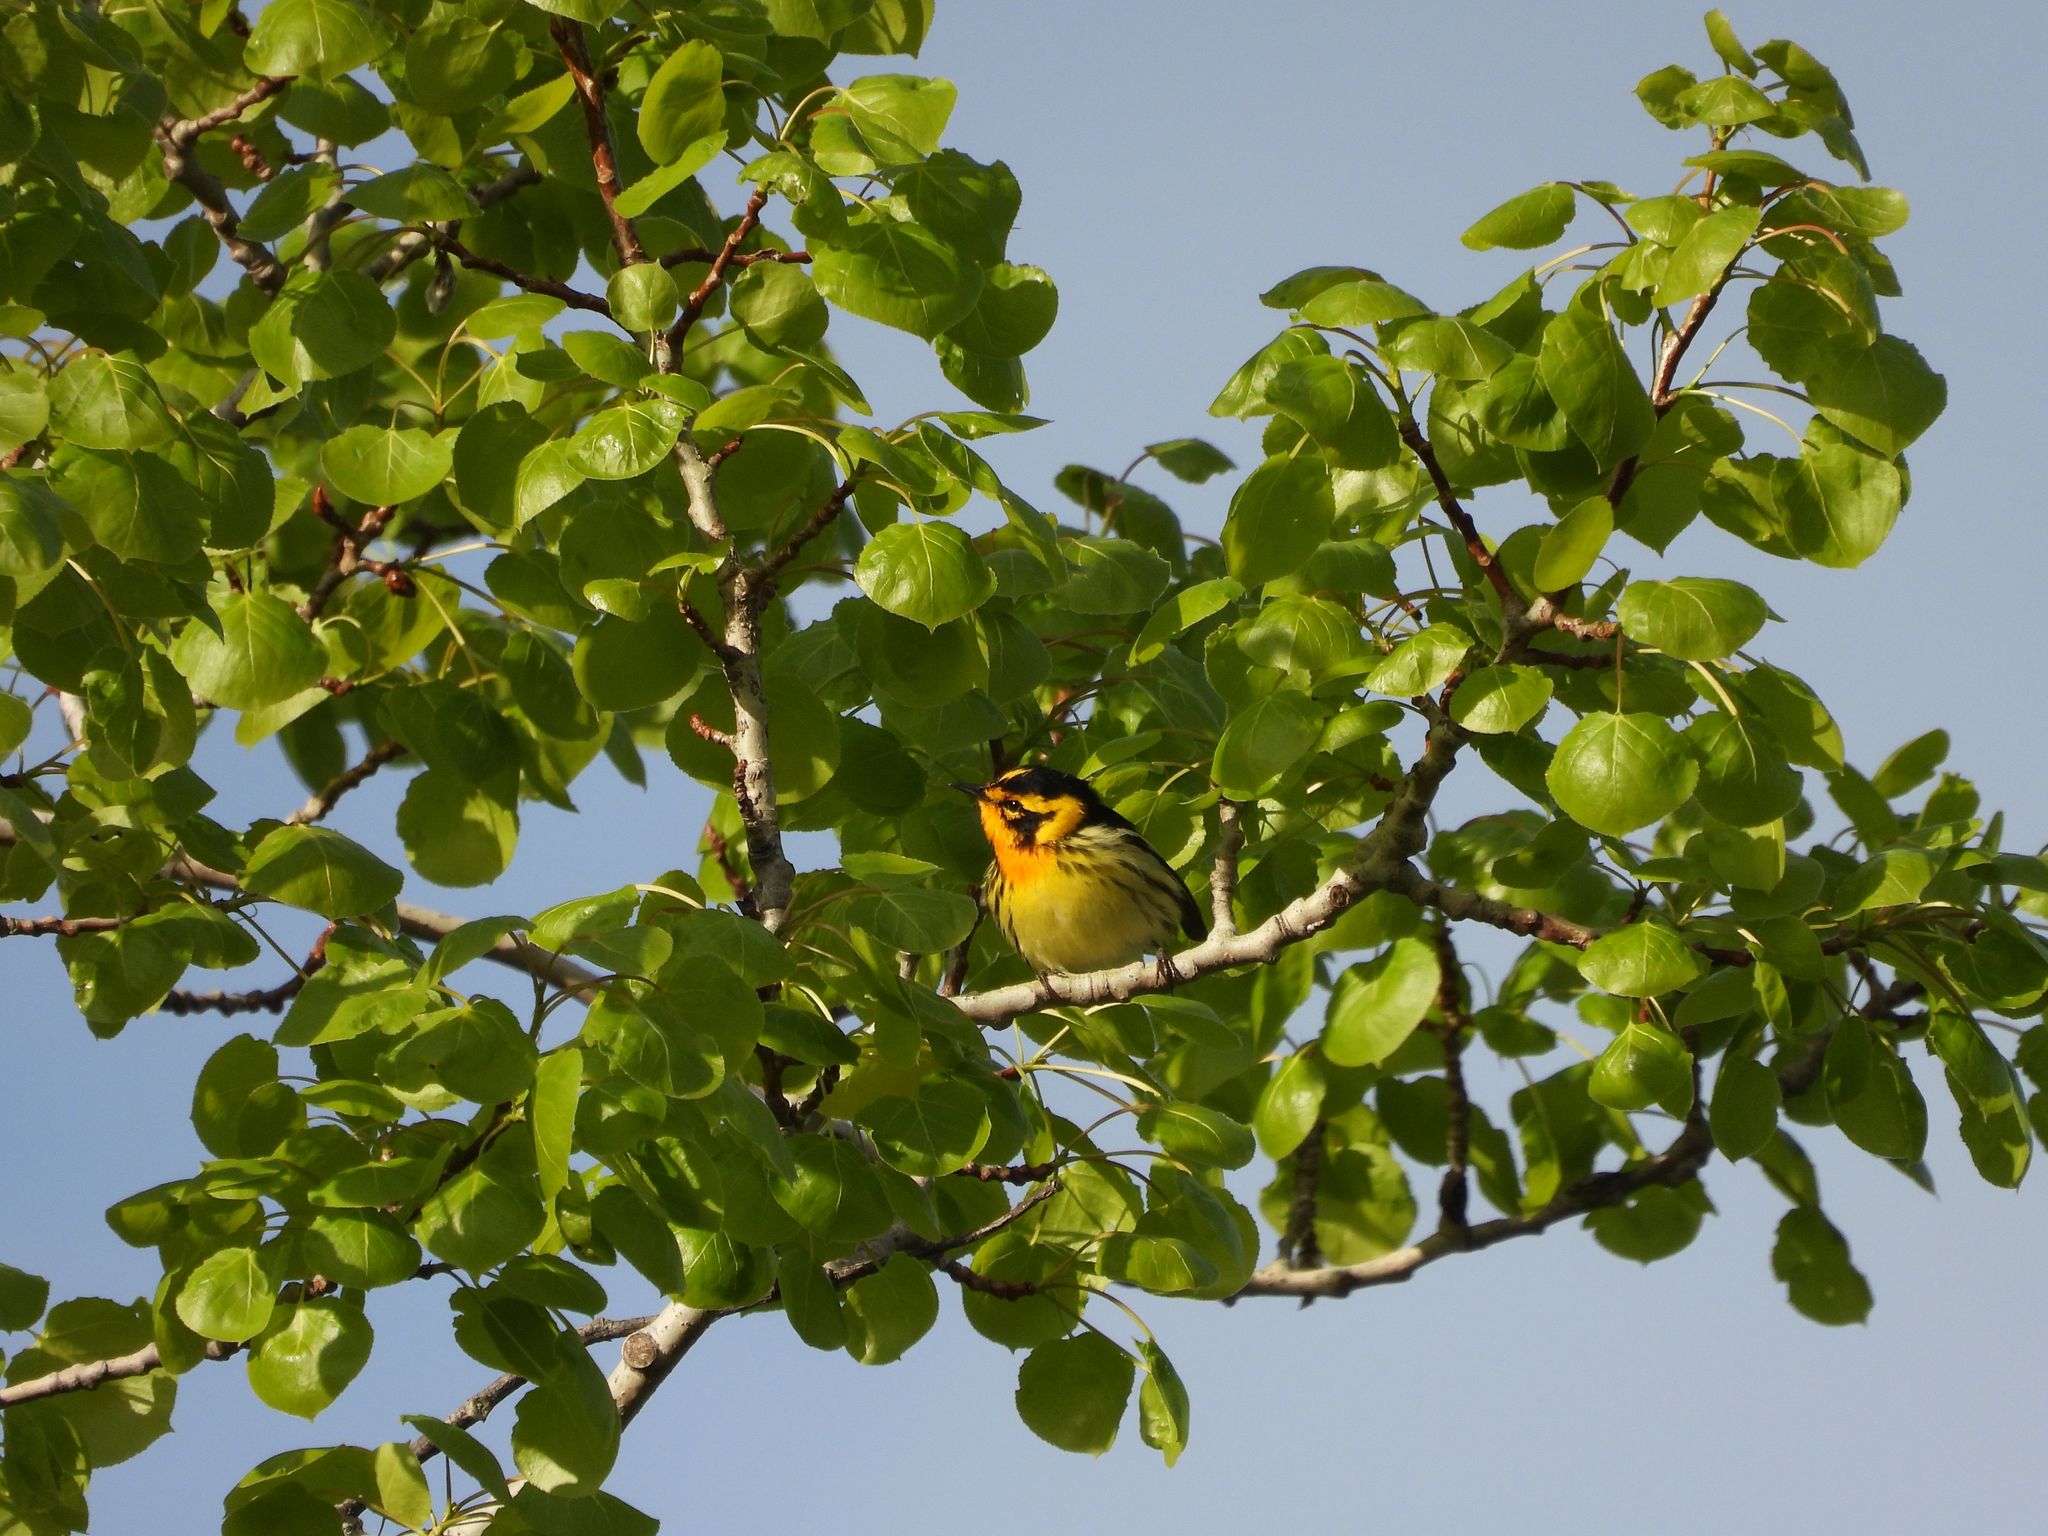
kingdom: Animalia
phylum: Chordata
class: Aves
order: Passeriformes
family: Parulidae
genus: Setophaga
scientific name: Setophaga fusca
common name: Blackburnian warbler
